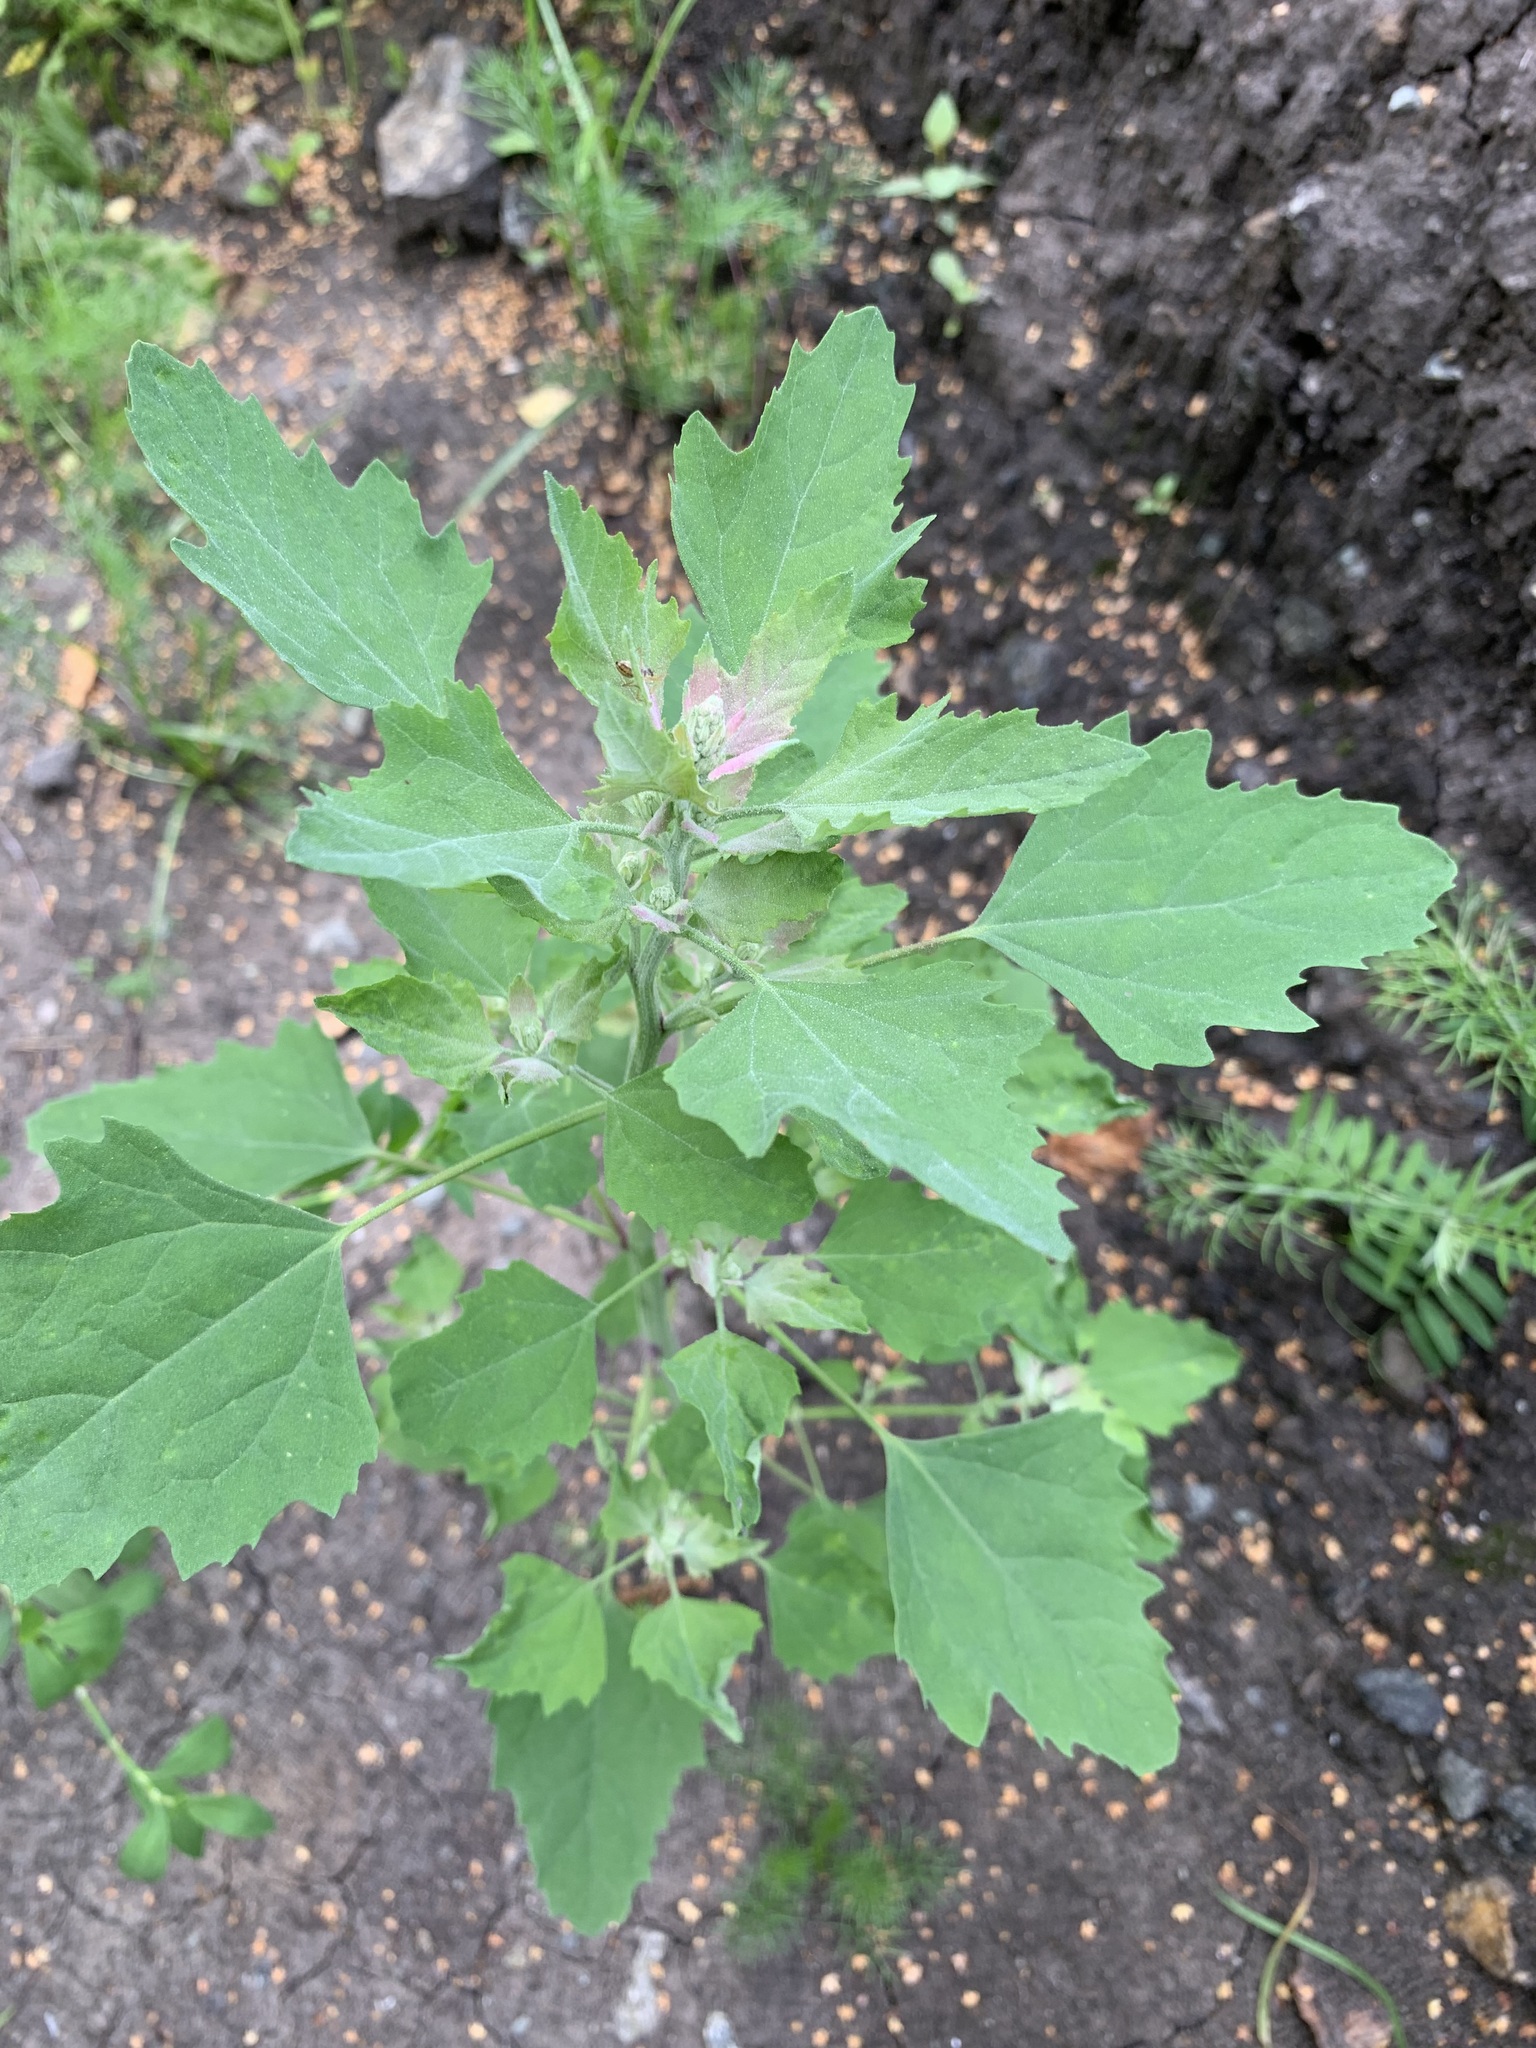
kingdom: Plantae
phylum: Tracheophyta
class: Magnoliopsida
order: Caryophyllales
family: Amaranthaceae
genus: Chenopodium
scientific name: Chenopodium album
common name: Fat-hen
